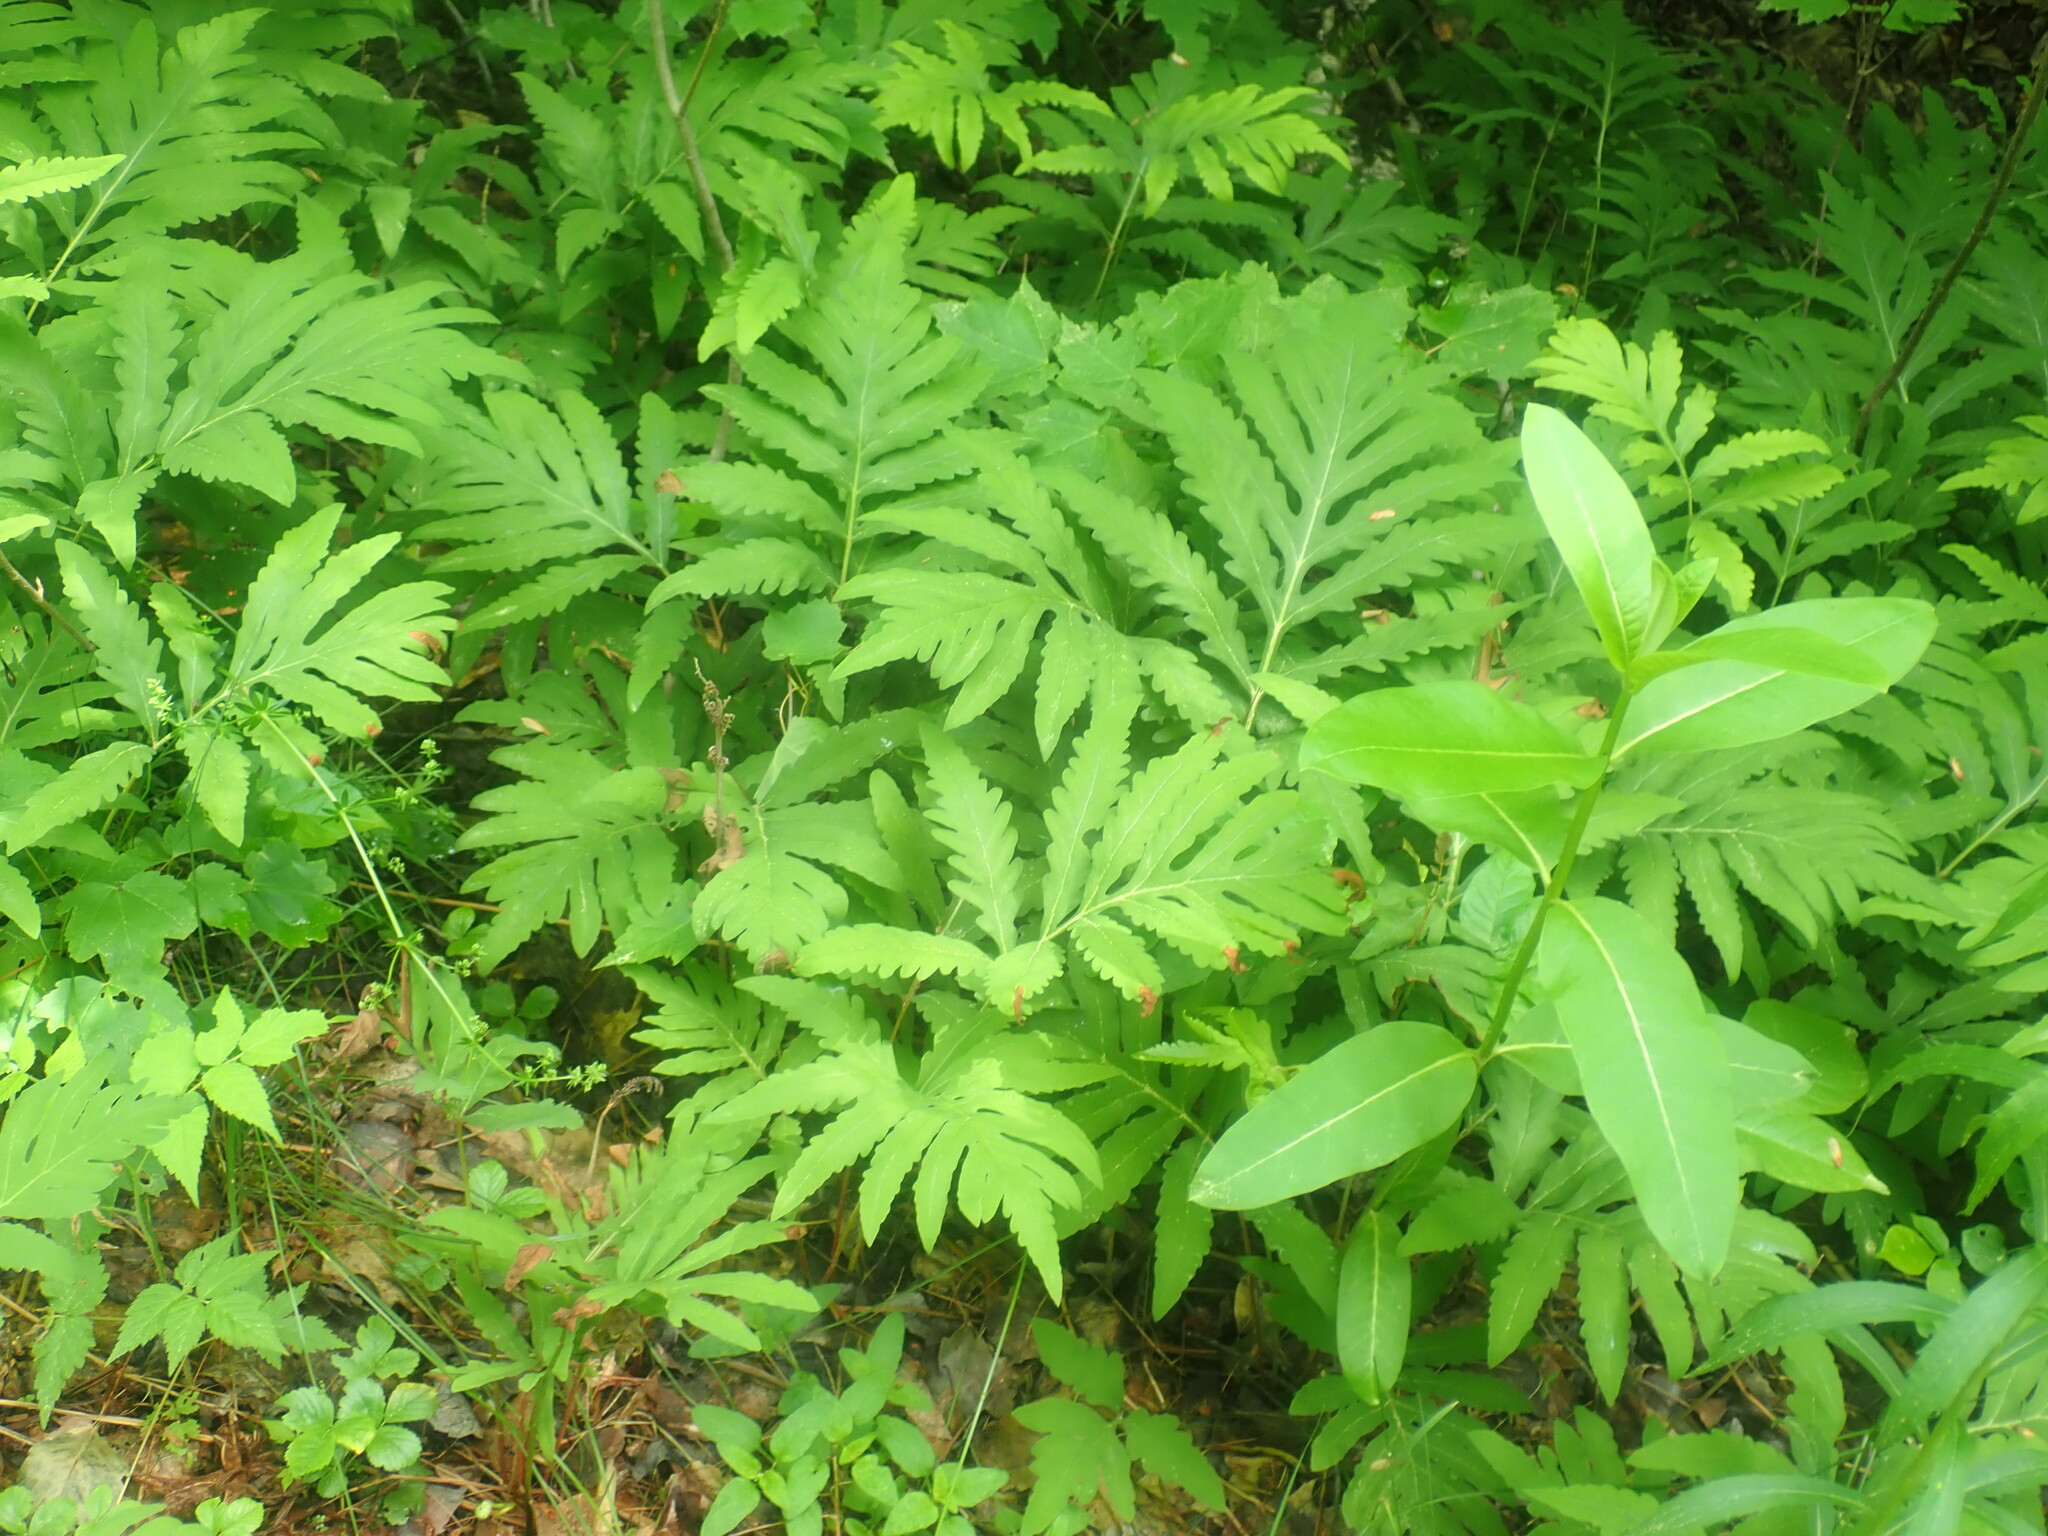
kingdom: Plantae
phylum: Tracheophyta
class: Polypodiopsida
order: Polypodiales
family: Onocleaceae
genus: Onoclea
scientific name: Onoclea sensibilis
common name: Sensitive fern
